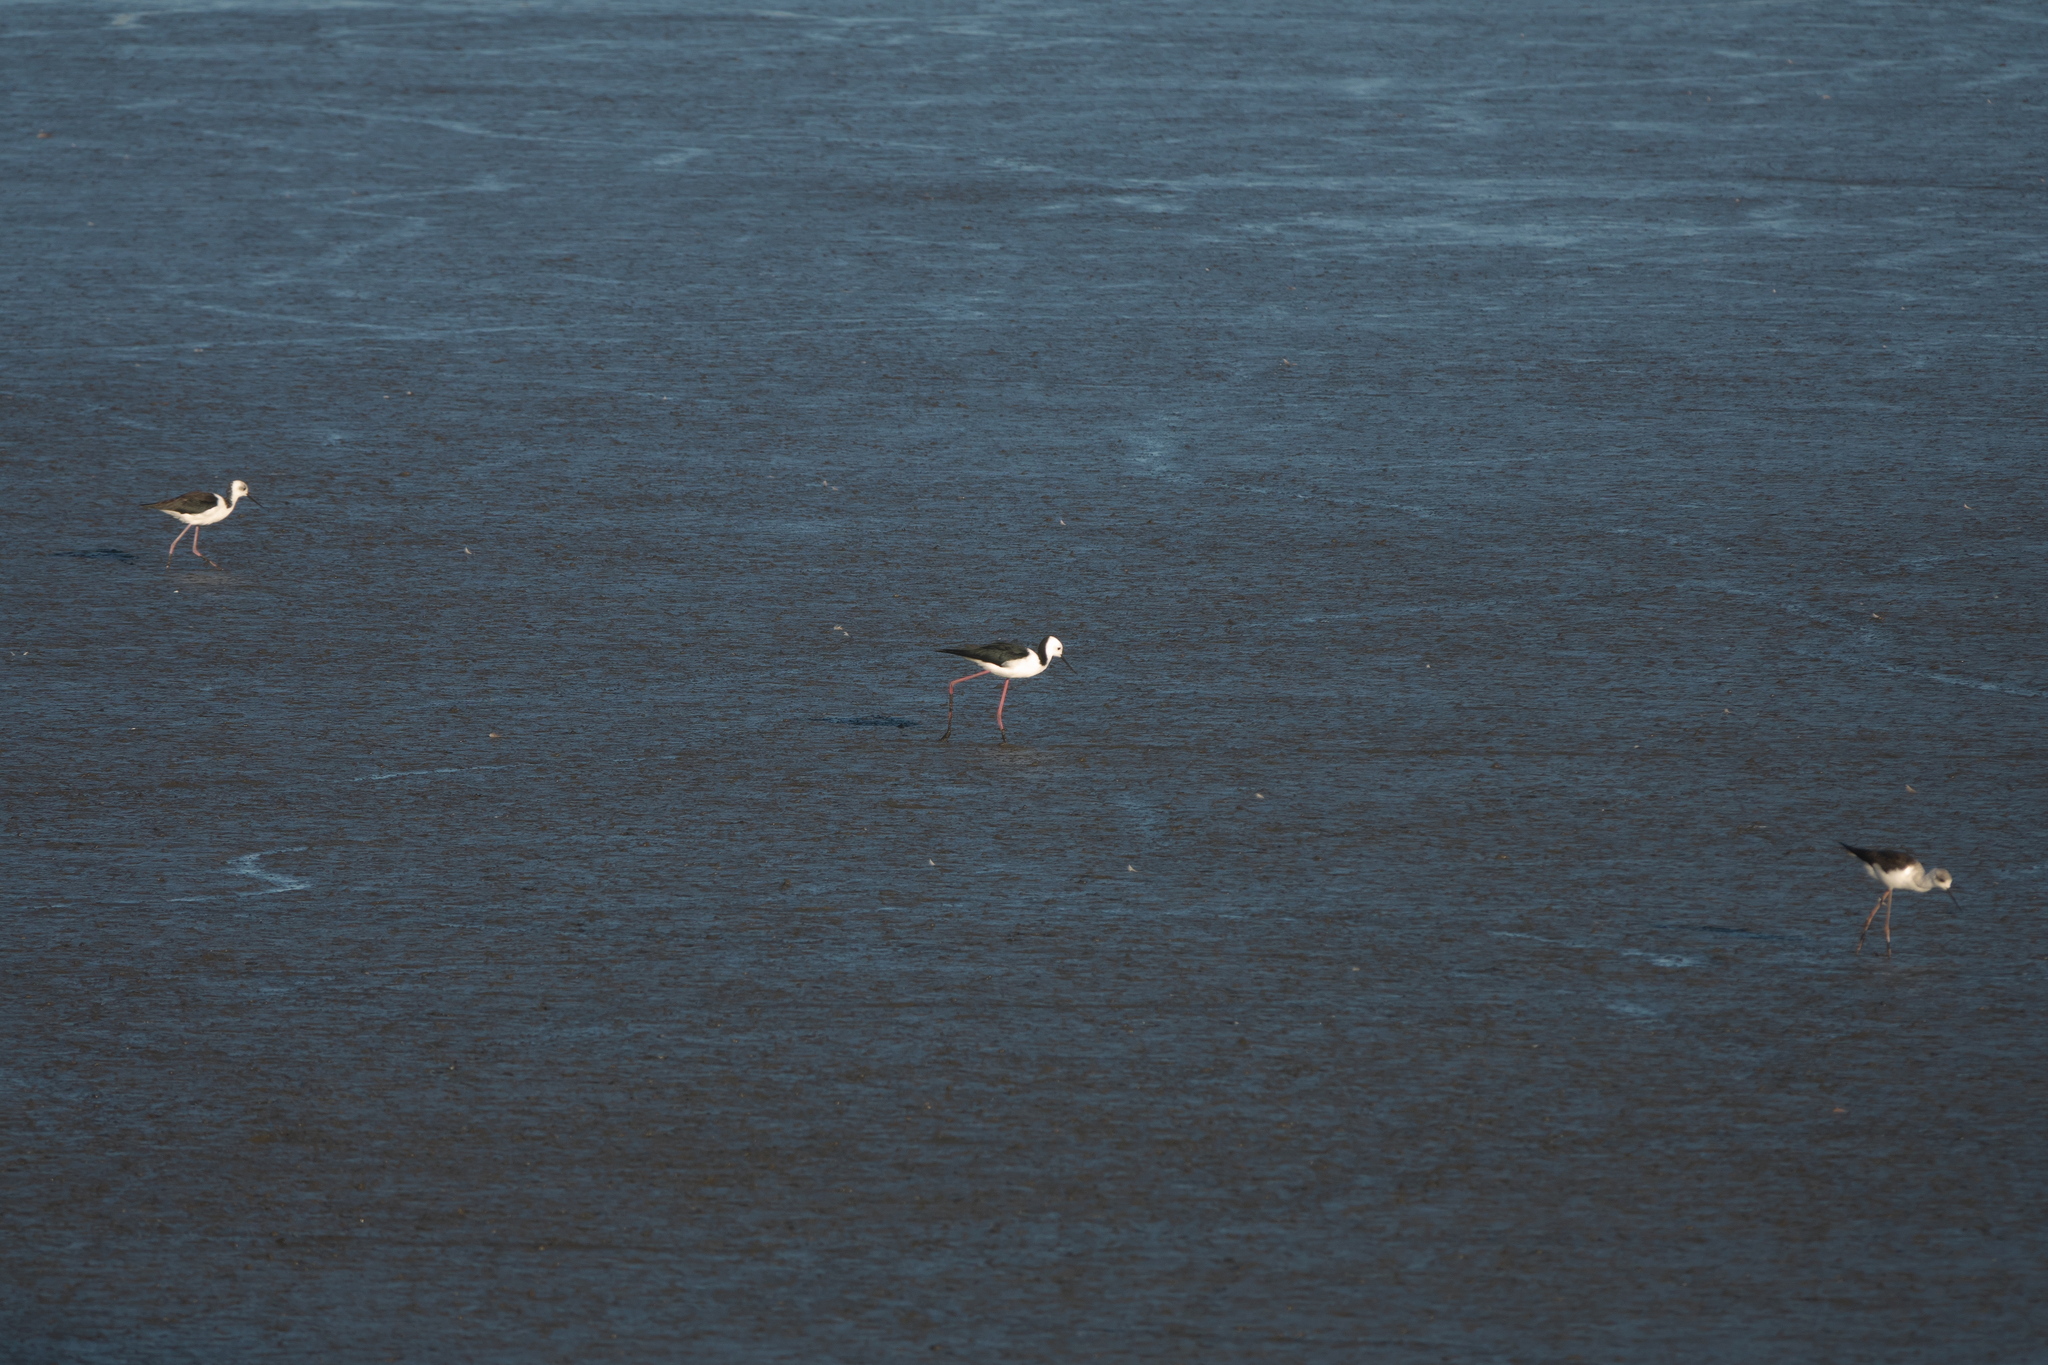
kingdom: Animalia
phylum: Chordata
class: Aves
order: Charadriiformes
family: Recurvirostridae
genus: Himantopus
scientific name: Himantopus leucocephalus
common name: White-headed stilt
